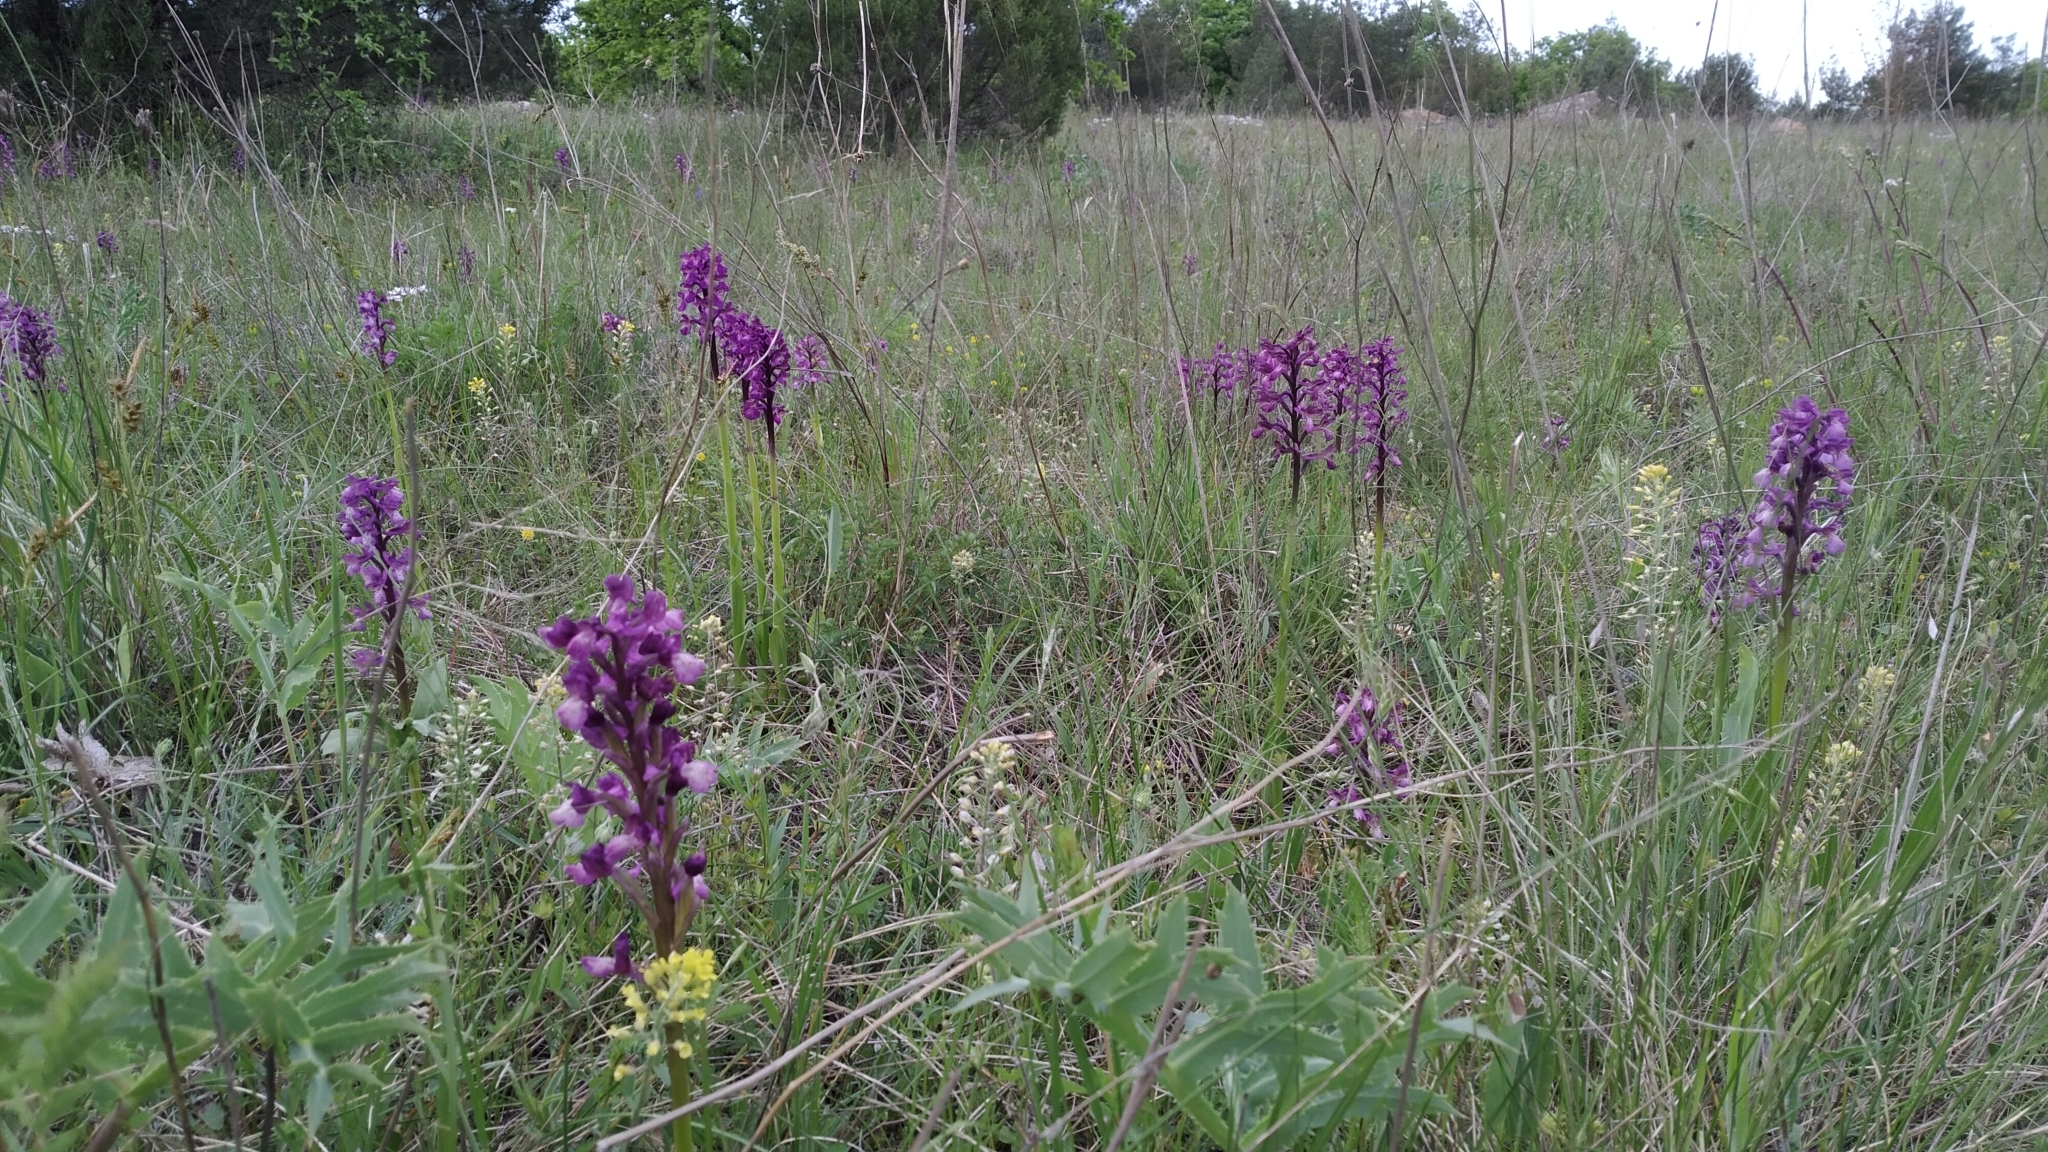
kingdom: Plantae
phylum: Tracheophyta
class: Liliopsida
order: Asparagales
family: Orchidaceae
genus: Anacamptis
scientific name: Anacamptis morio
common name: Green-winged orchid
